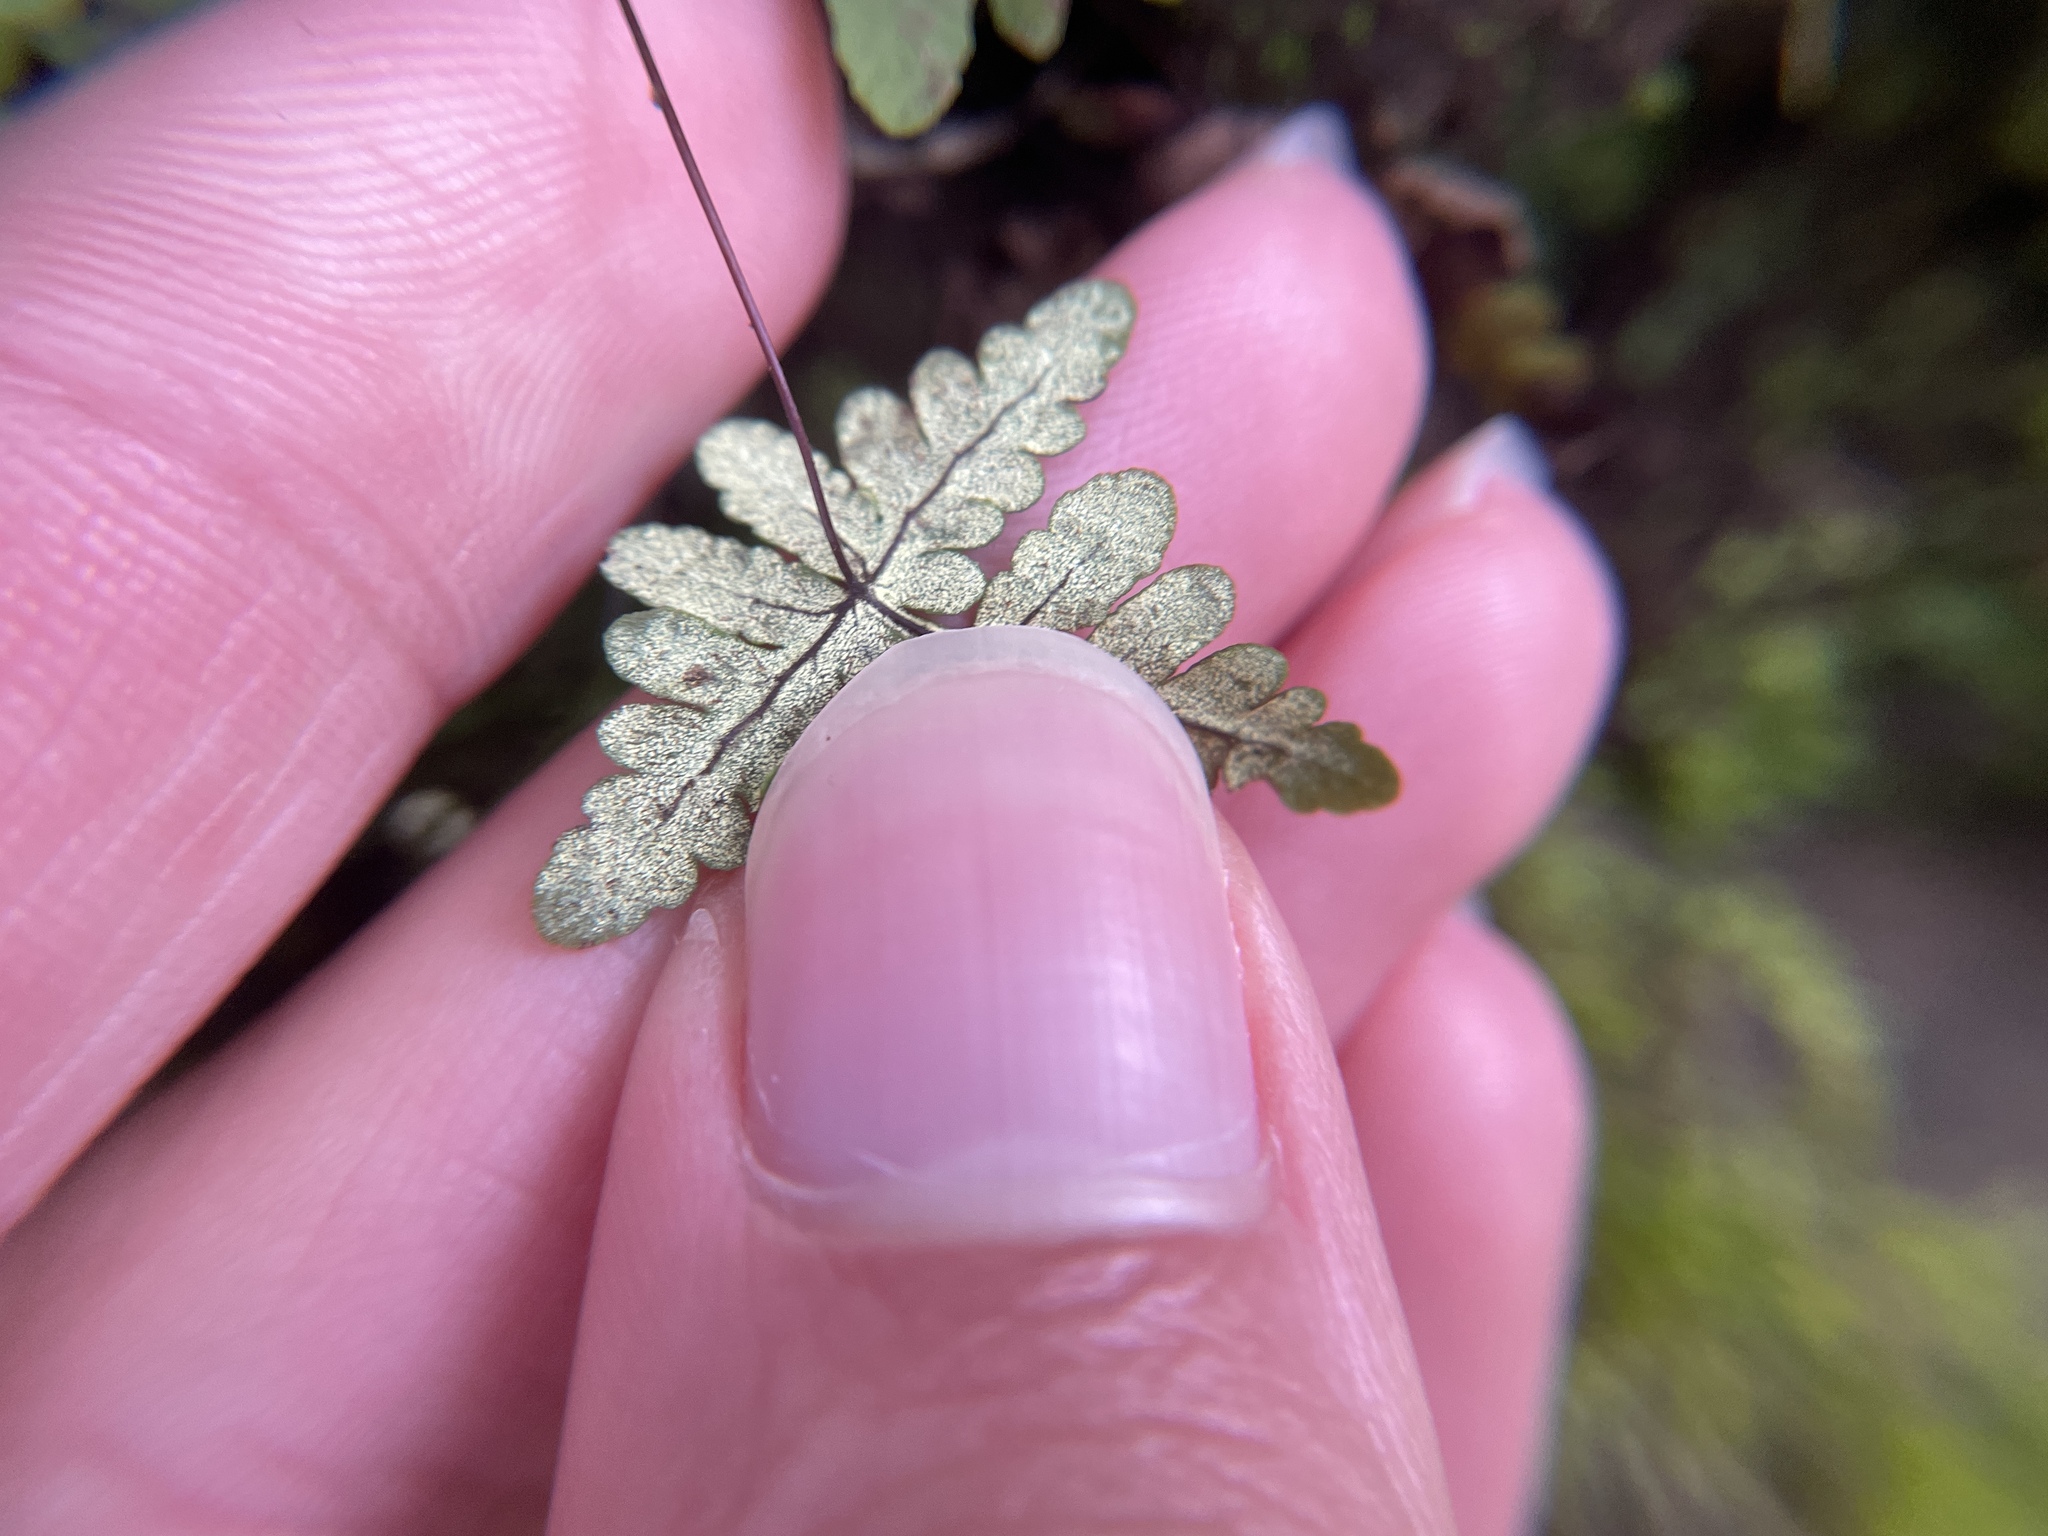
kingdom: Plantae
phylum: Tracheophyta
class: Polypodiopsida
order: Polypodiales
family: Pteridaceae
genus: Pentagramma
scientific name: Pentagramma triangularis
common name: Gold fern
